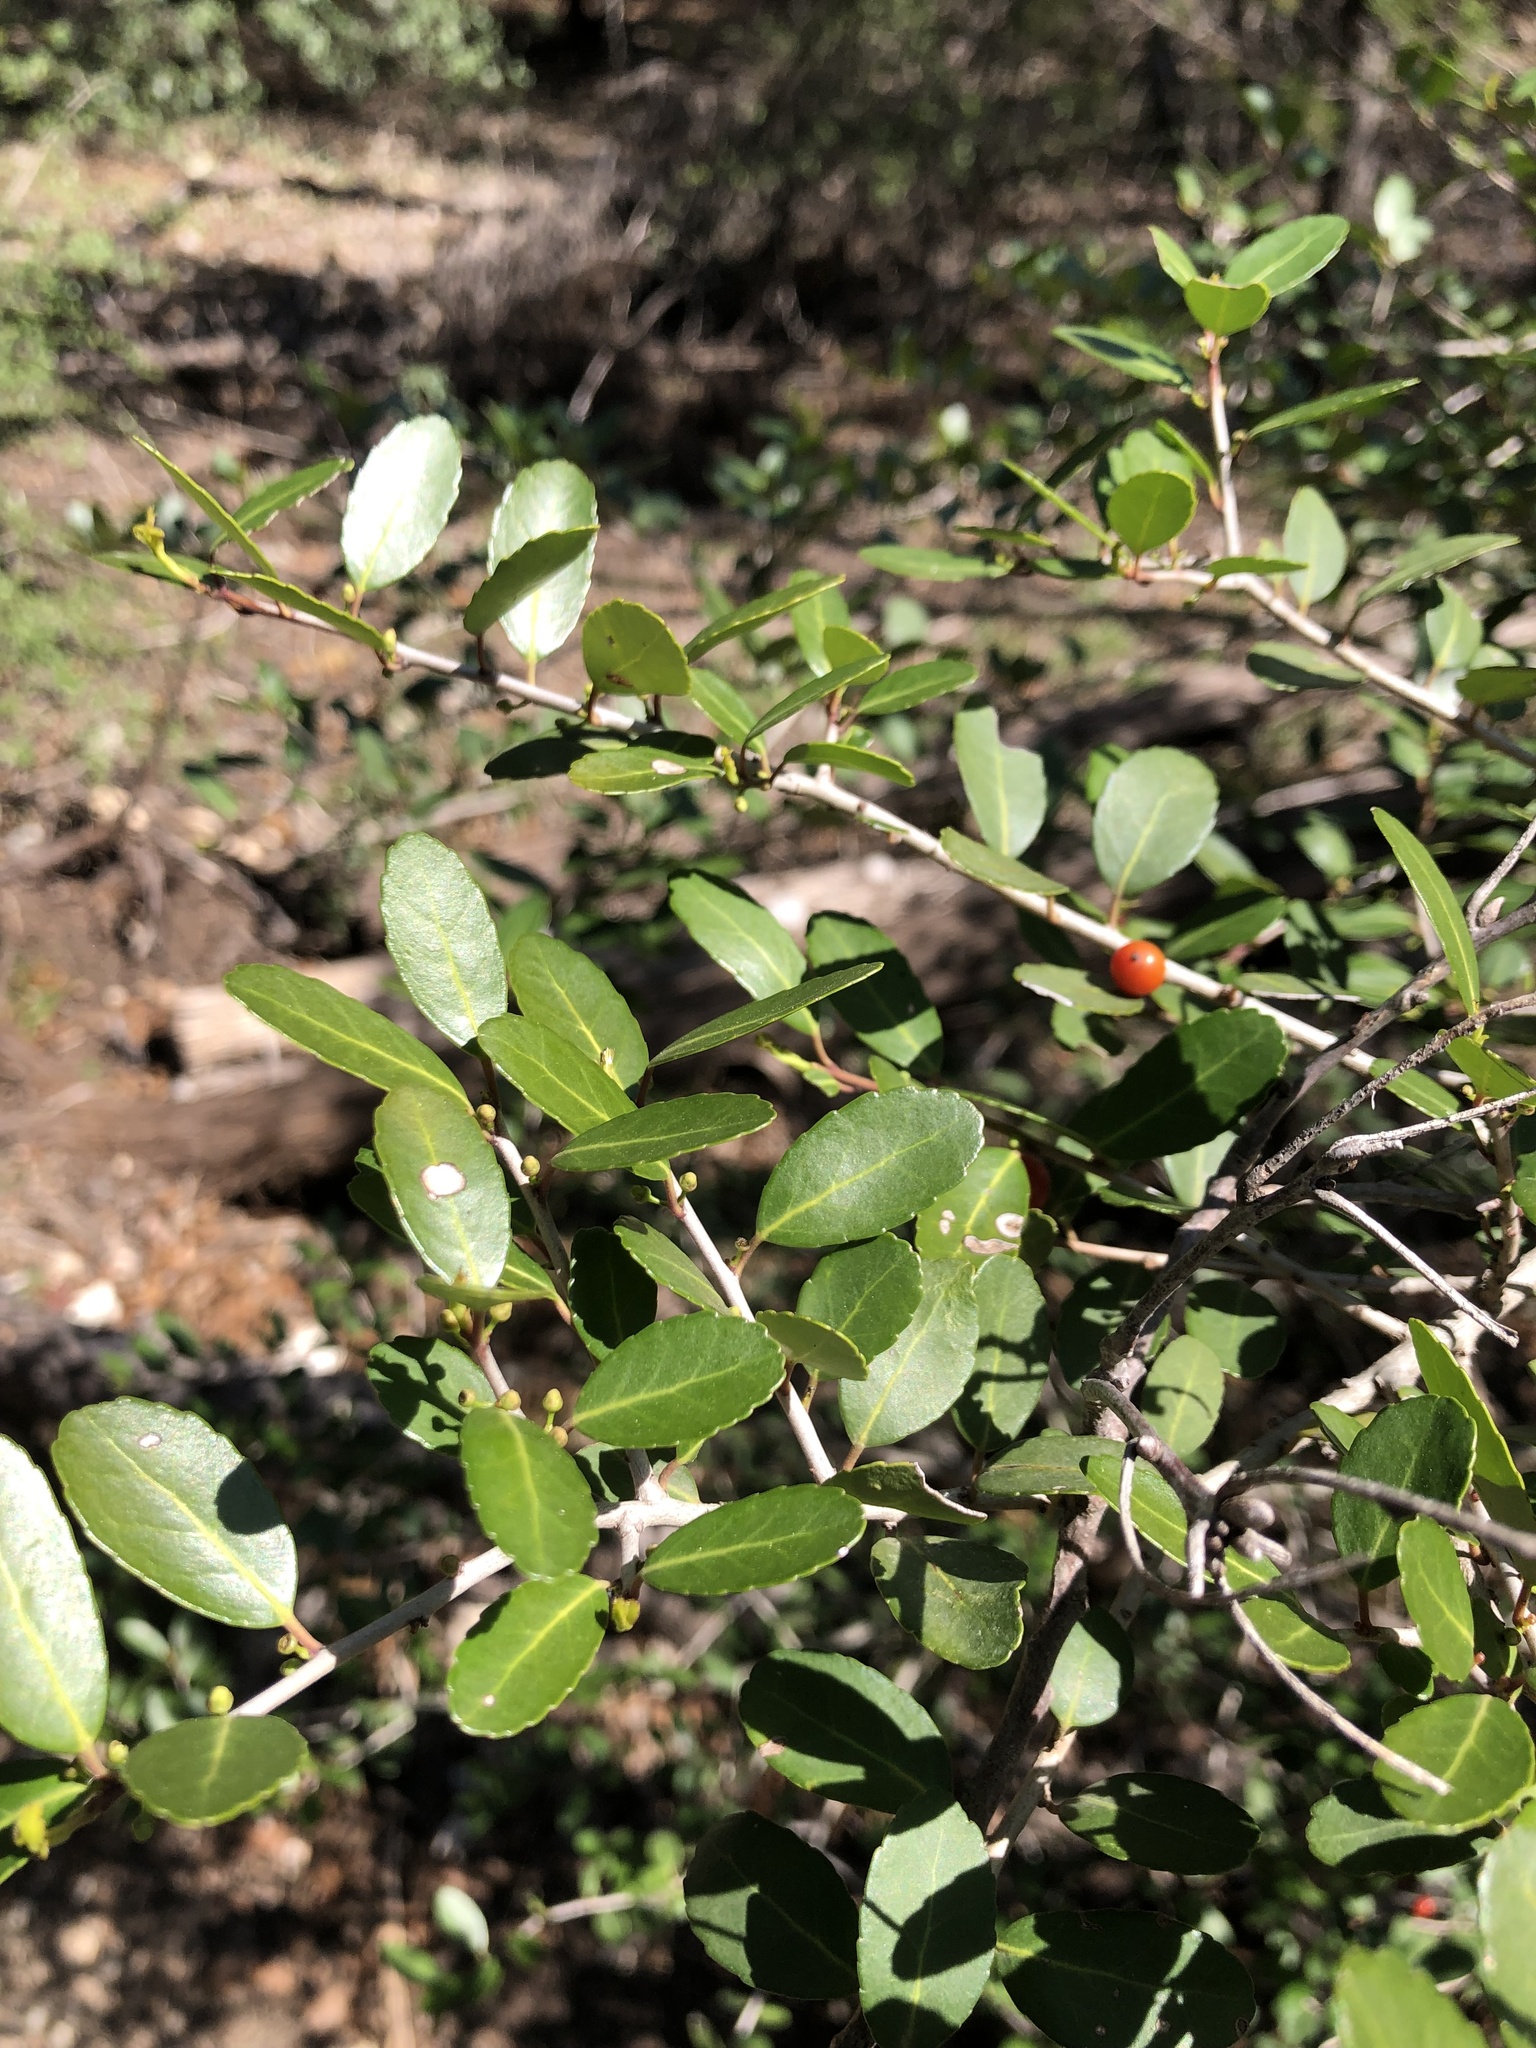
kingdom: Plantae
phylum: Tracheophyta
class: Magnoliopsida
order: Aquifoliales
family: Aquifoliaceae
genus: Ilex
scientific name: Ilex vomitoria
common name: Yaupon holly
